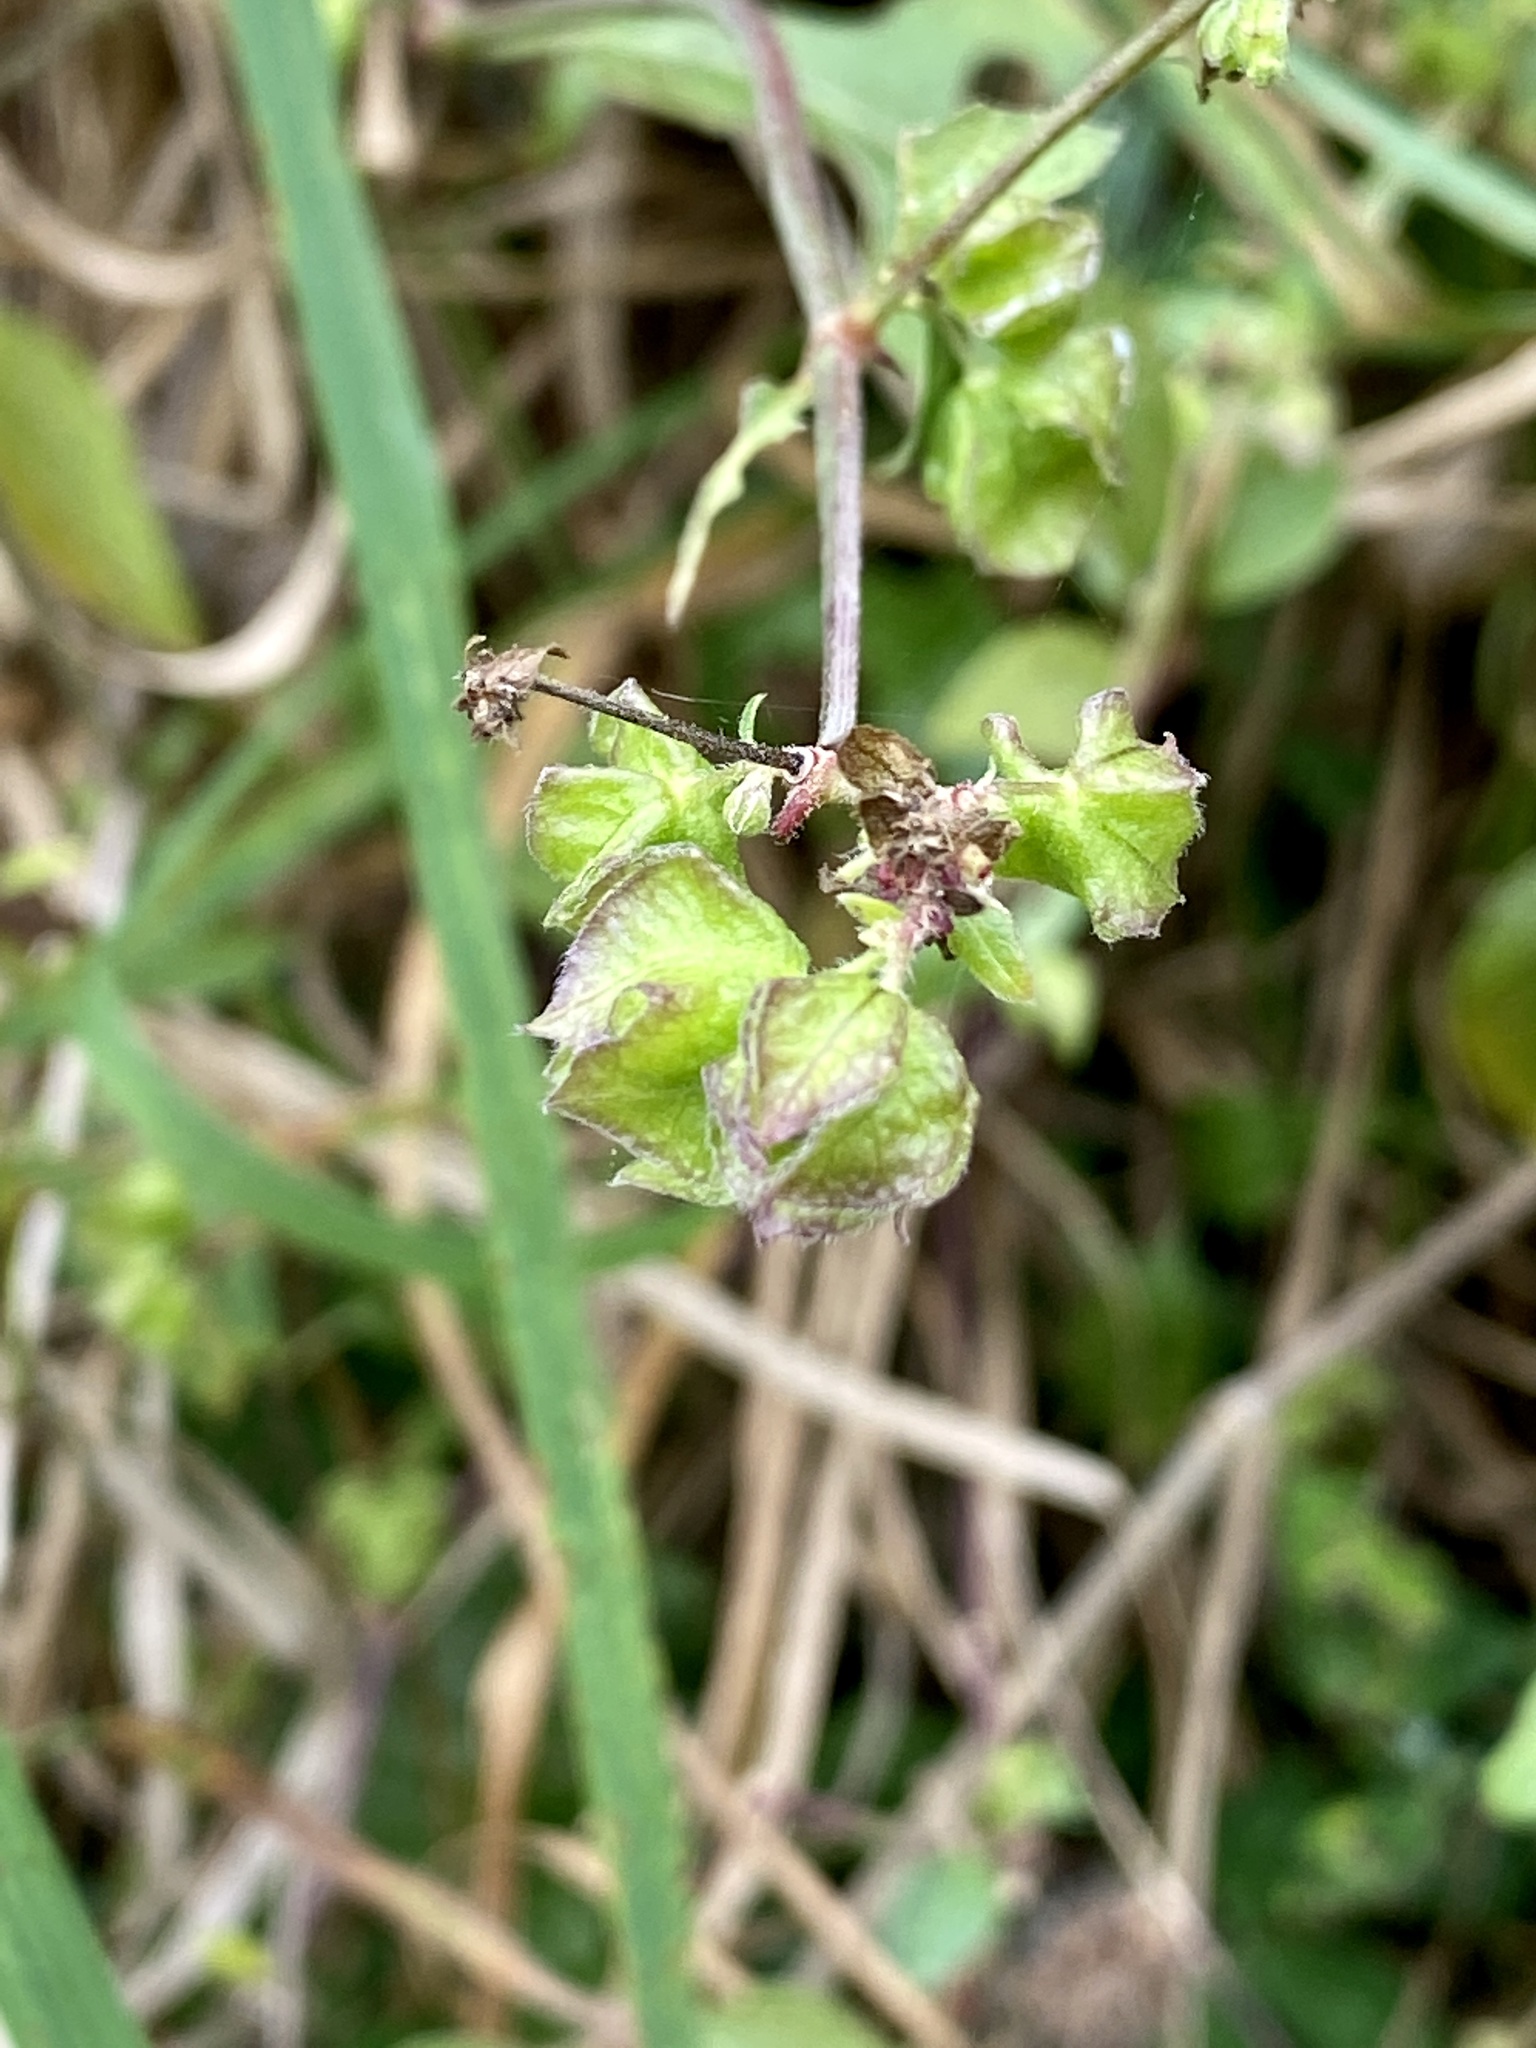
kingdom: Plantae
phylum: Tracheophyta
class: Magnoliopsida
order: Caryophyllales
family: Nyctaginaceae
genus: Mirabilis
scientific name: Mirabilis nyctaginea
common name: Umbrella wort
